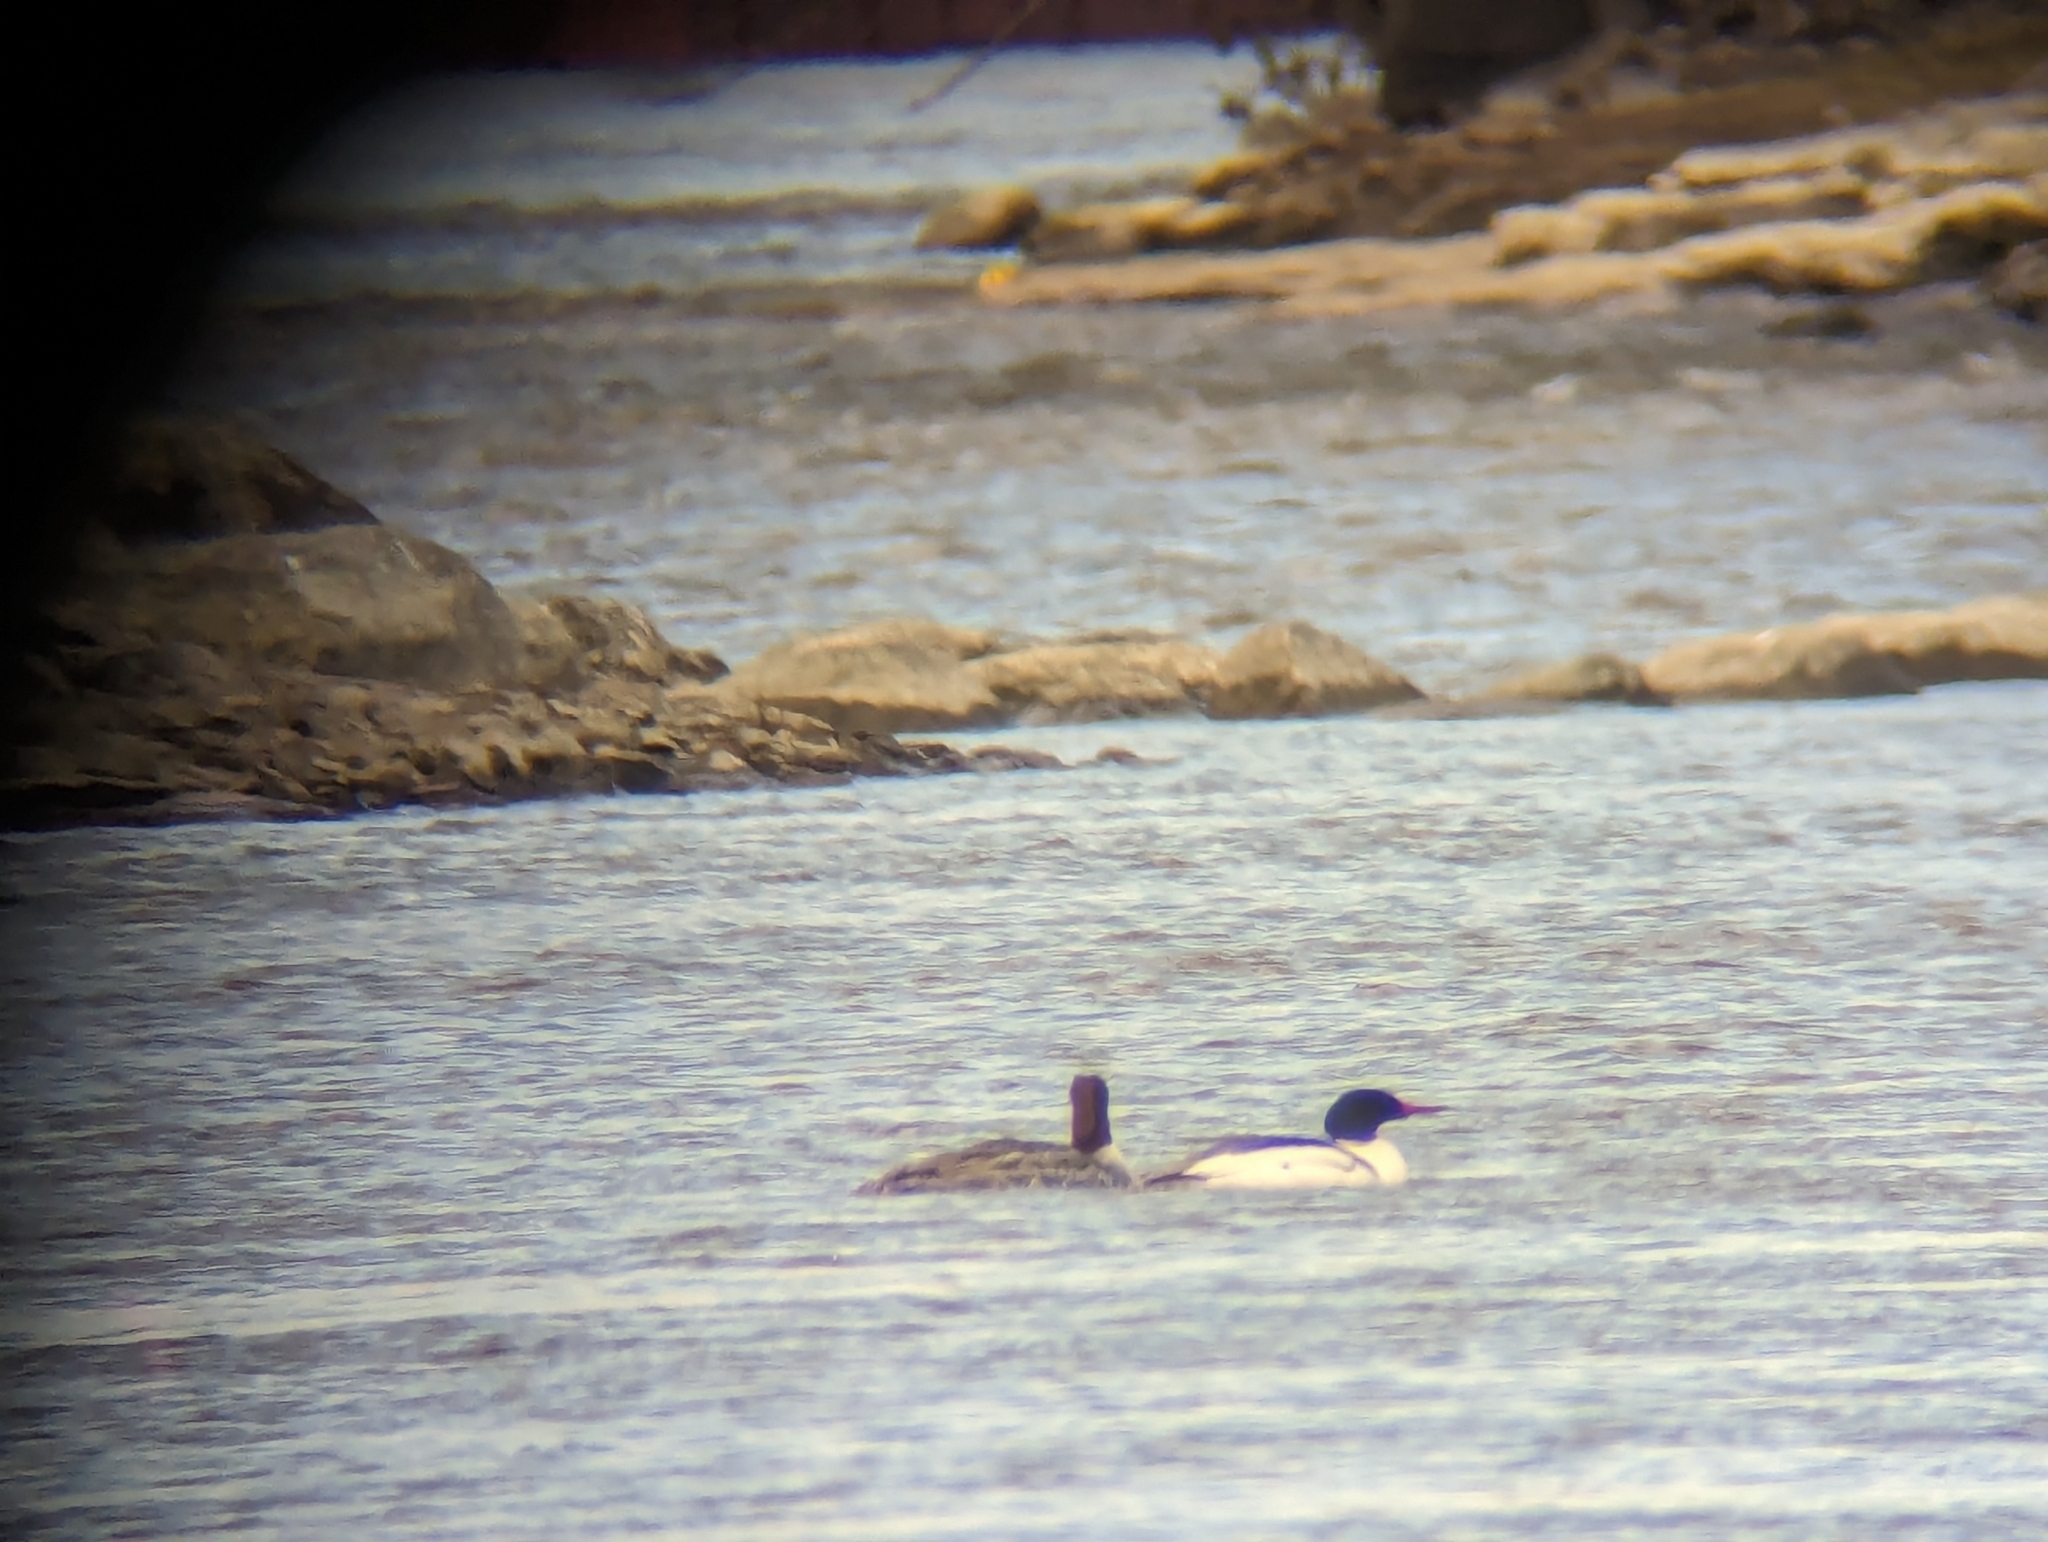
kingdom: Animalia
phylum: Chordata
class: Aves
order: Anseriformes
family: Anatidae
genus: Mergus
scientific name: Mergus merganser
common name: Common merganser
